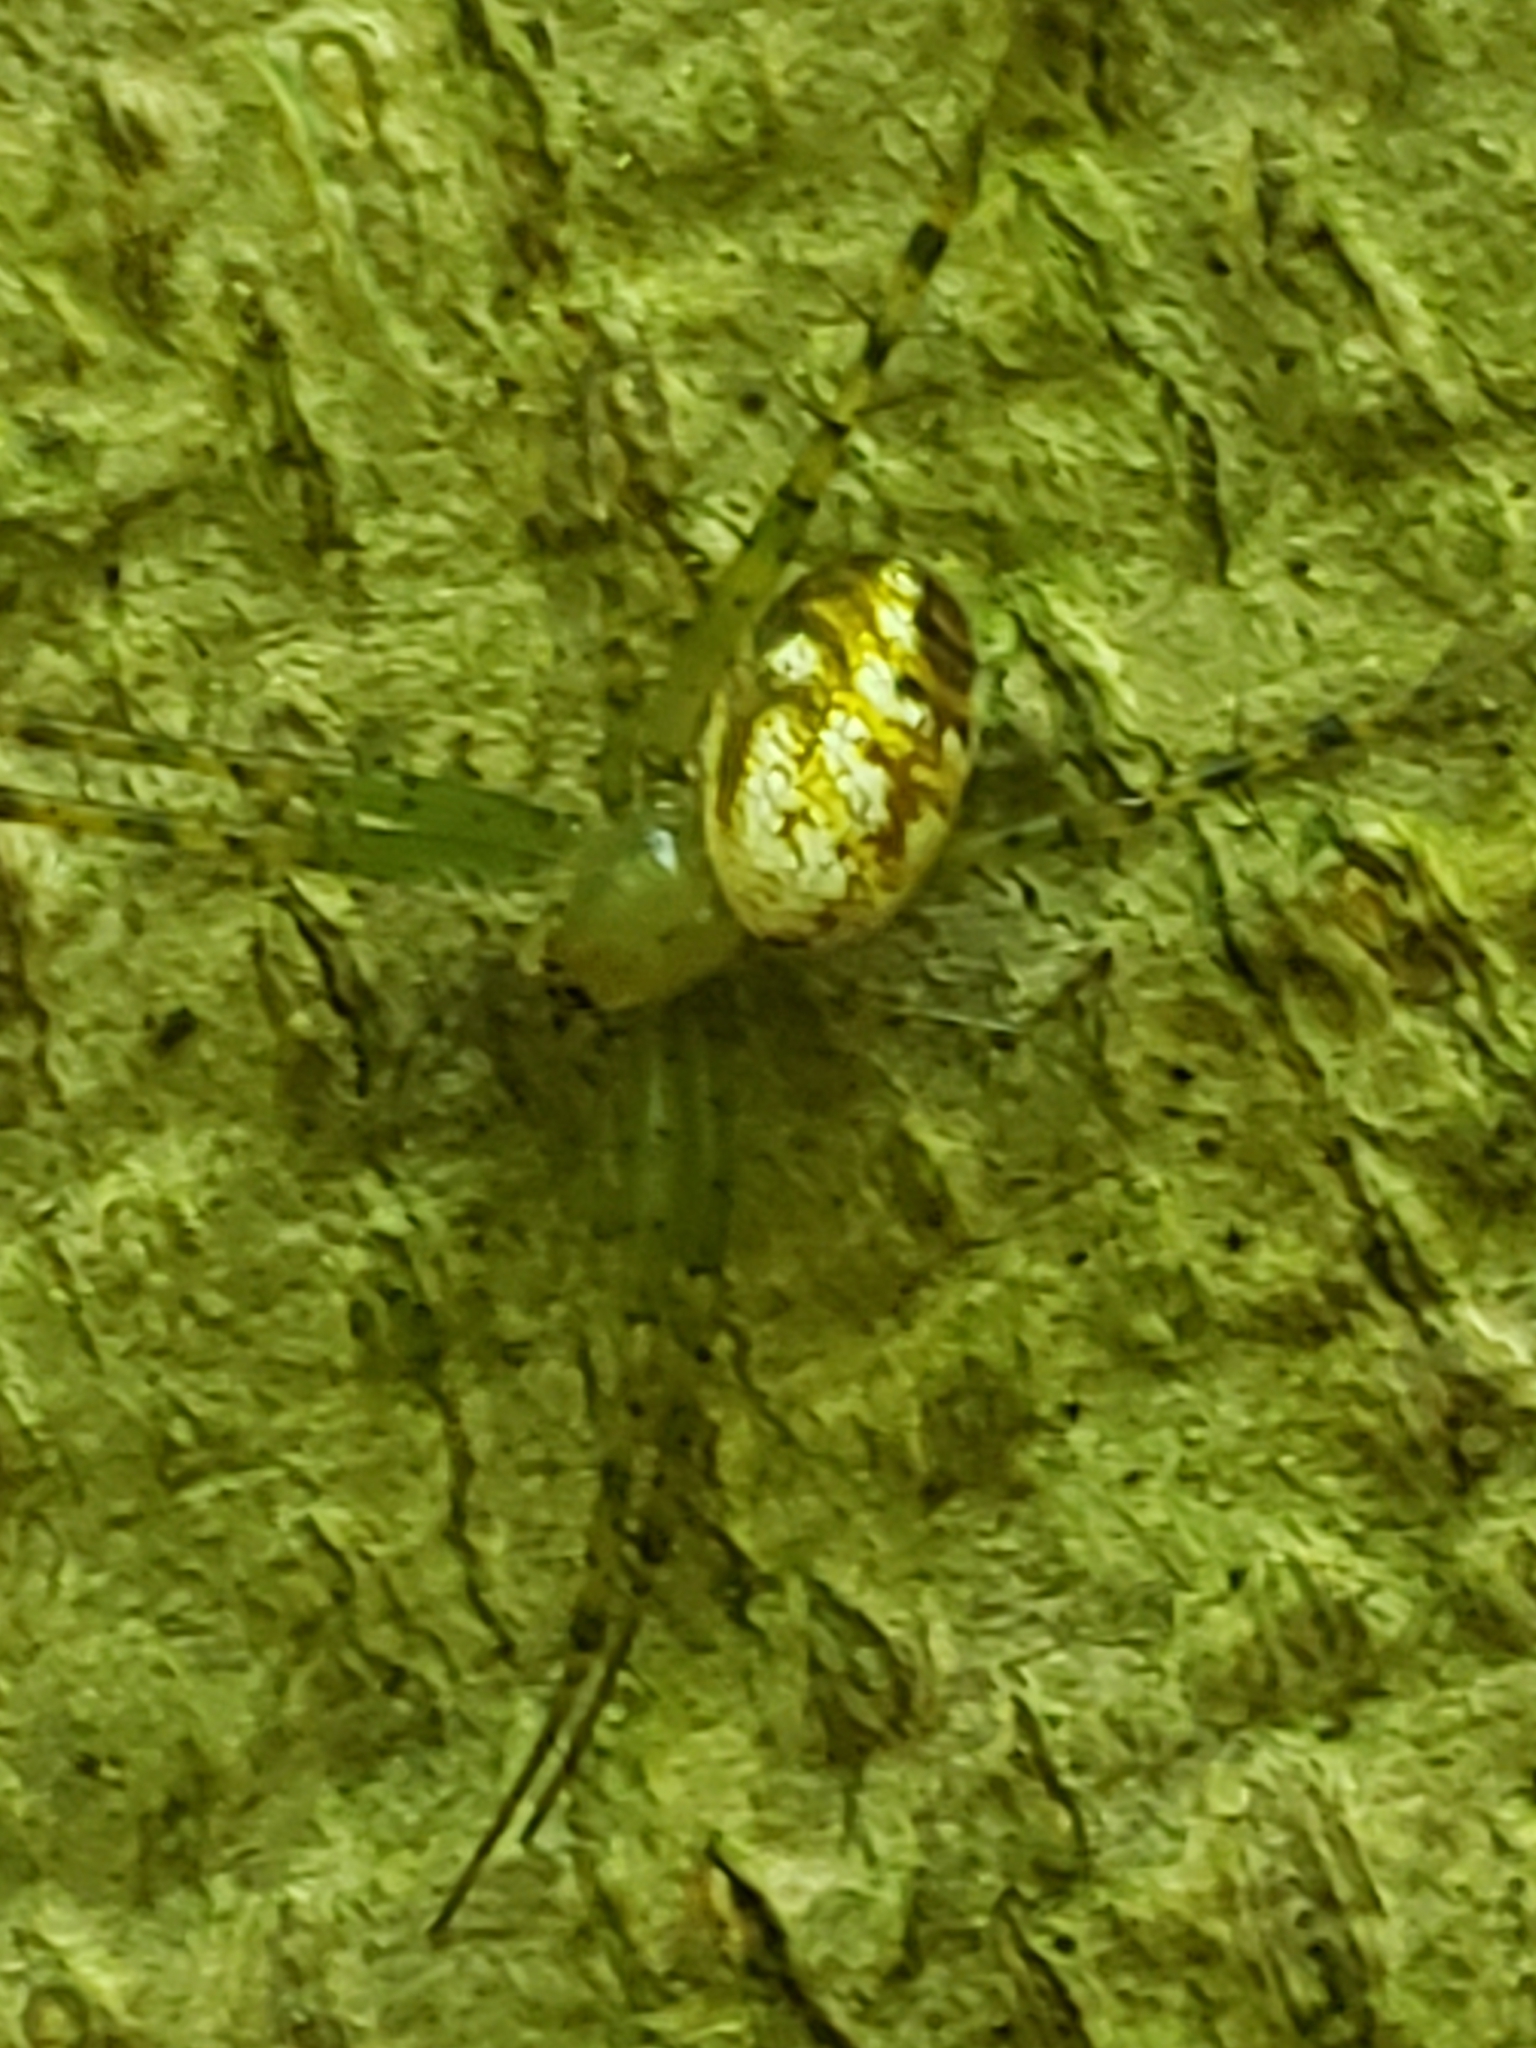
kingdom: Animalia
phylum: Arthropoda
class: Arachnida
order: Araneae
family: Araneidae
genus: Mangora
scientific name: Mangora spiculata
